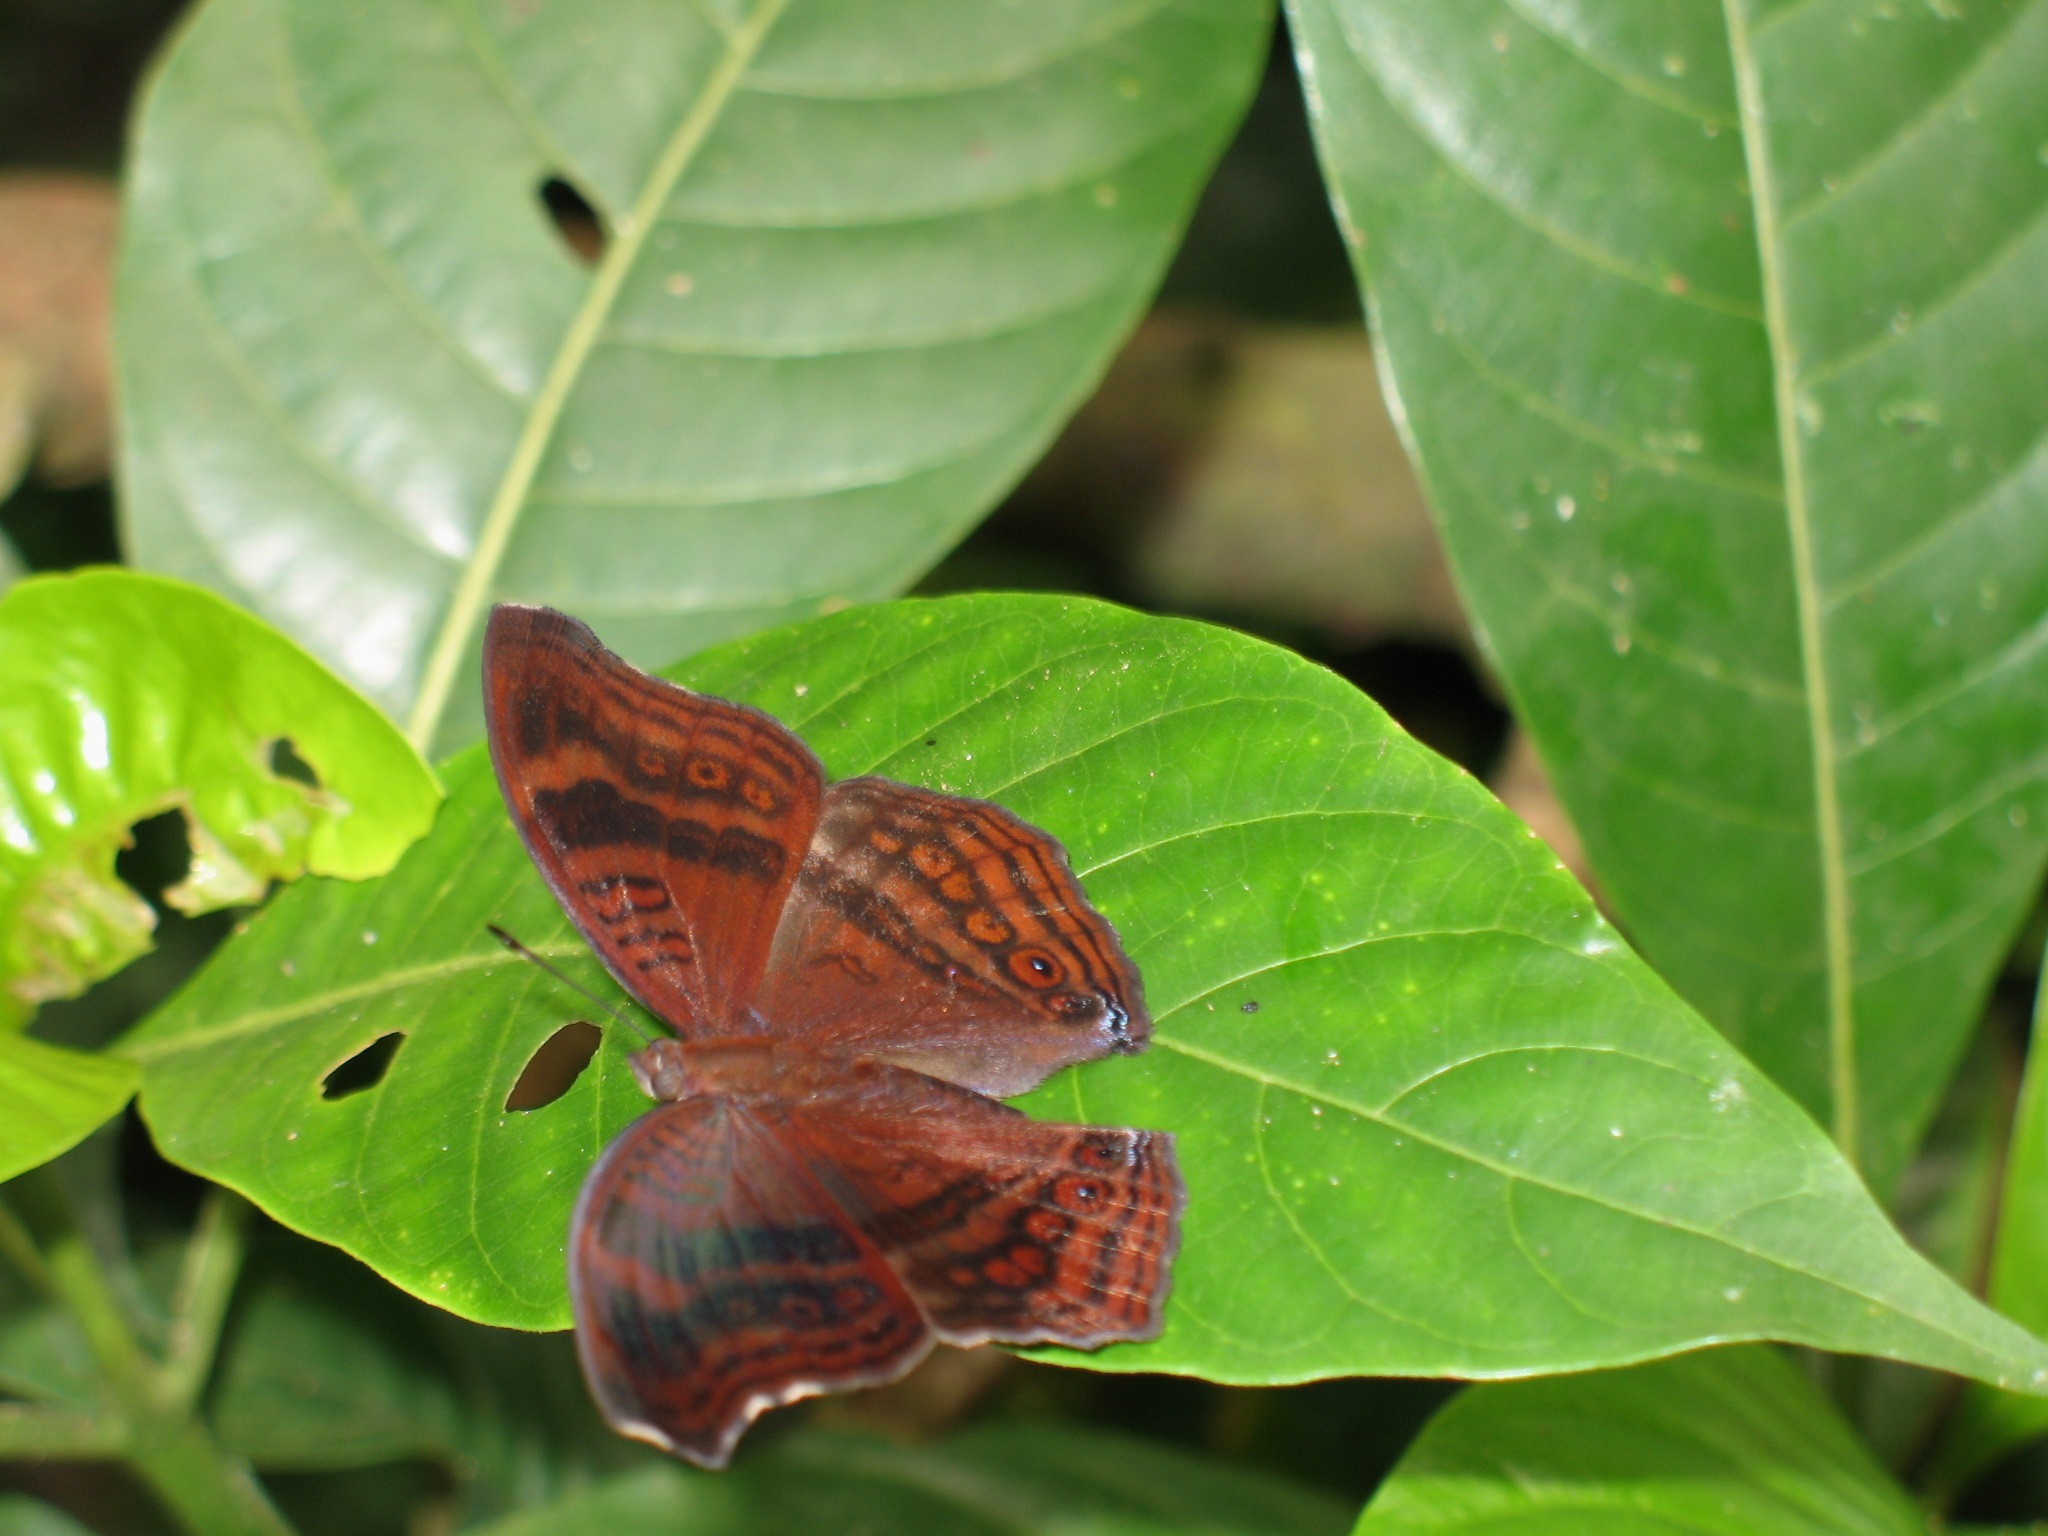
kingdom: Animalia
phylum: Arthropoda
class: Insecta
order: Lepidoptera
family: Nymphalidae
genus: Junonia
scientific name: Junonia stygia
